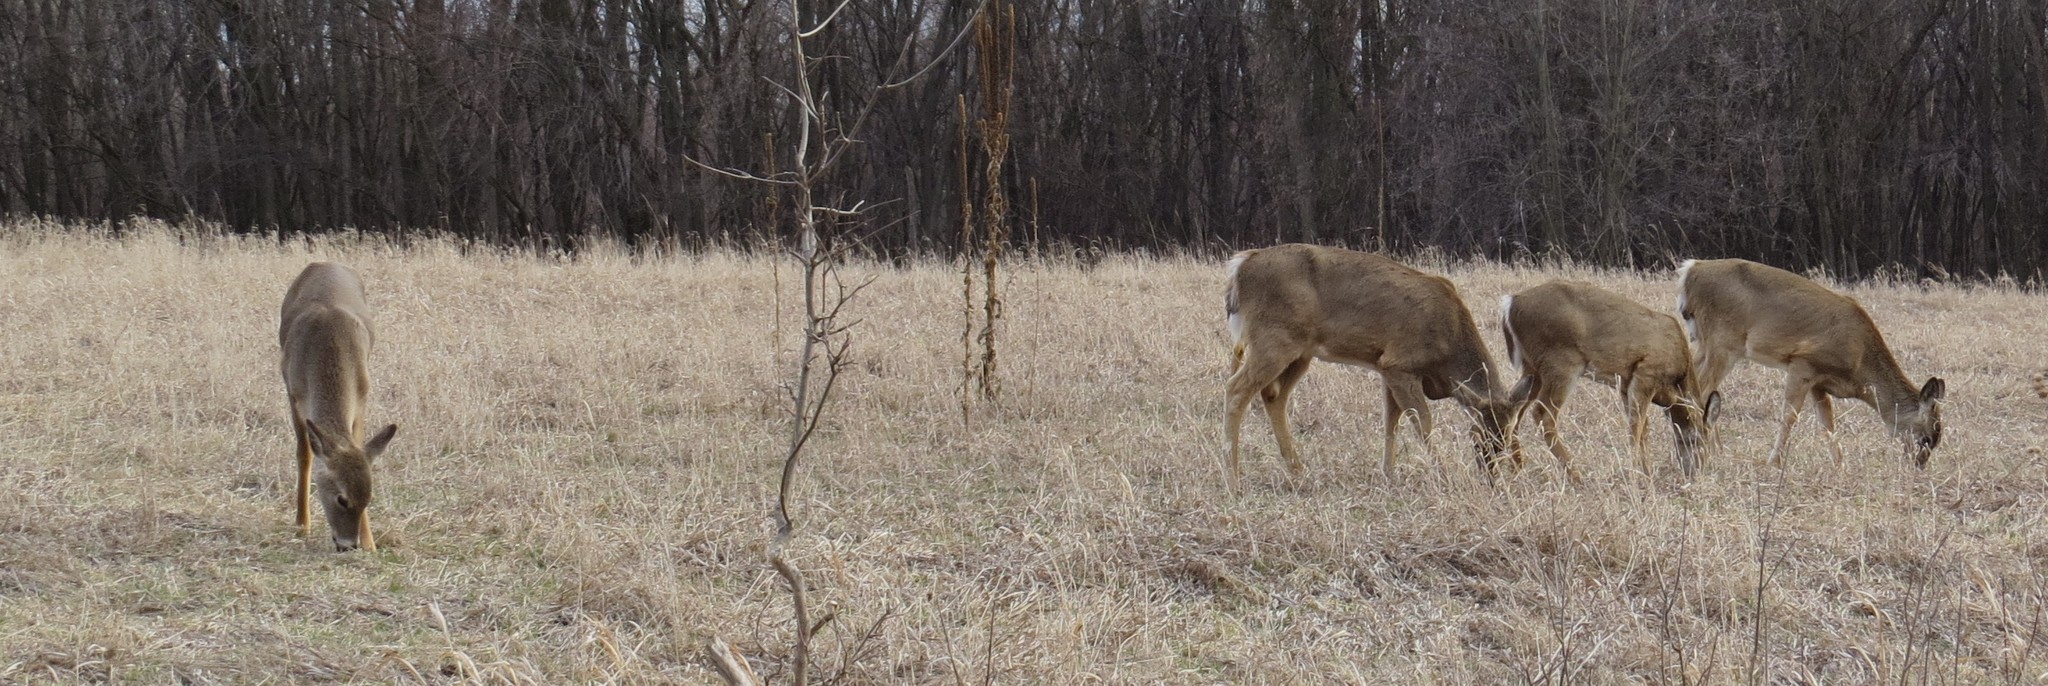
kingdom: Animalia
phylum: Chordata
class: Mammalia
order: Artiodactyla
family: Cervidae
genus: Odocoileus
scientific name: Odocoileus virginianus
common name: White-tailed deer
